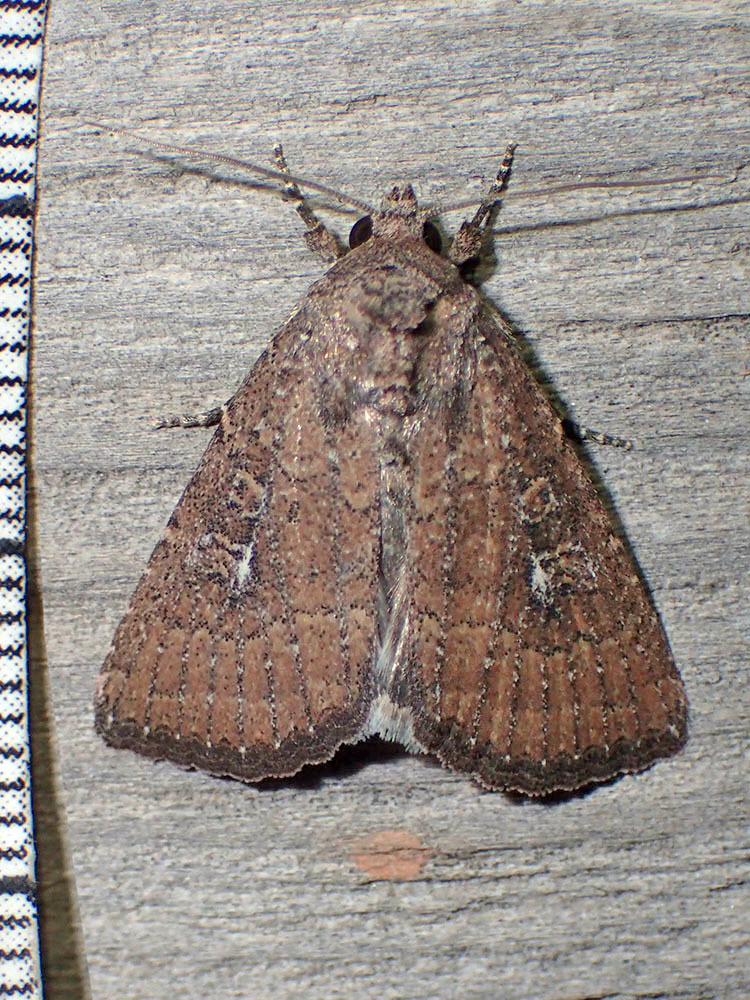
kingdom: Animalia
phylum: Arthropoda
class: Insecta
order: Lepidoptera
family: Noctuidae
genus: Condica
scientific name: Condica charada
